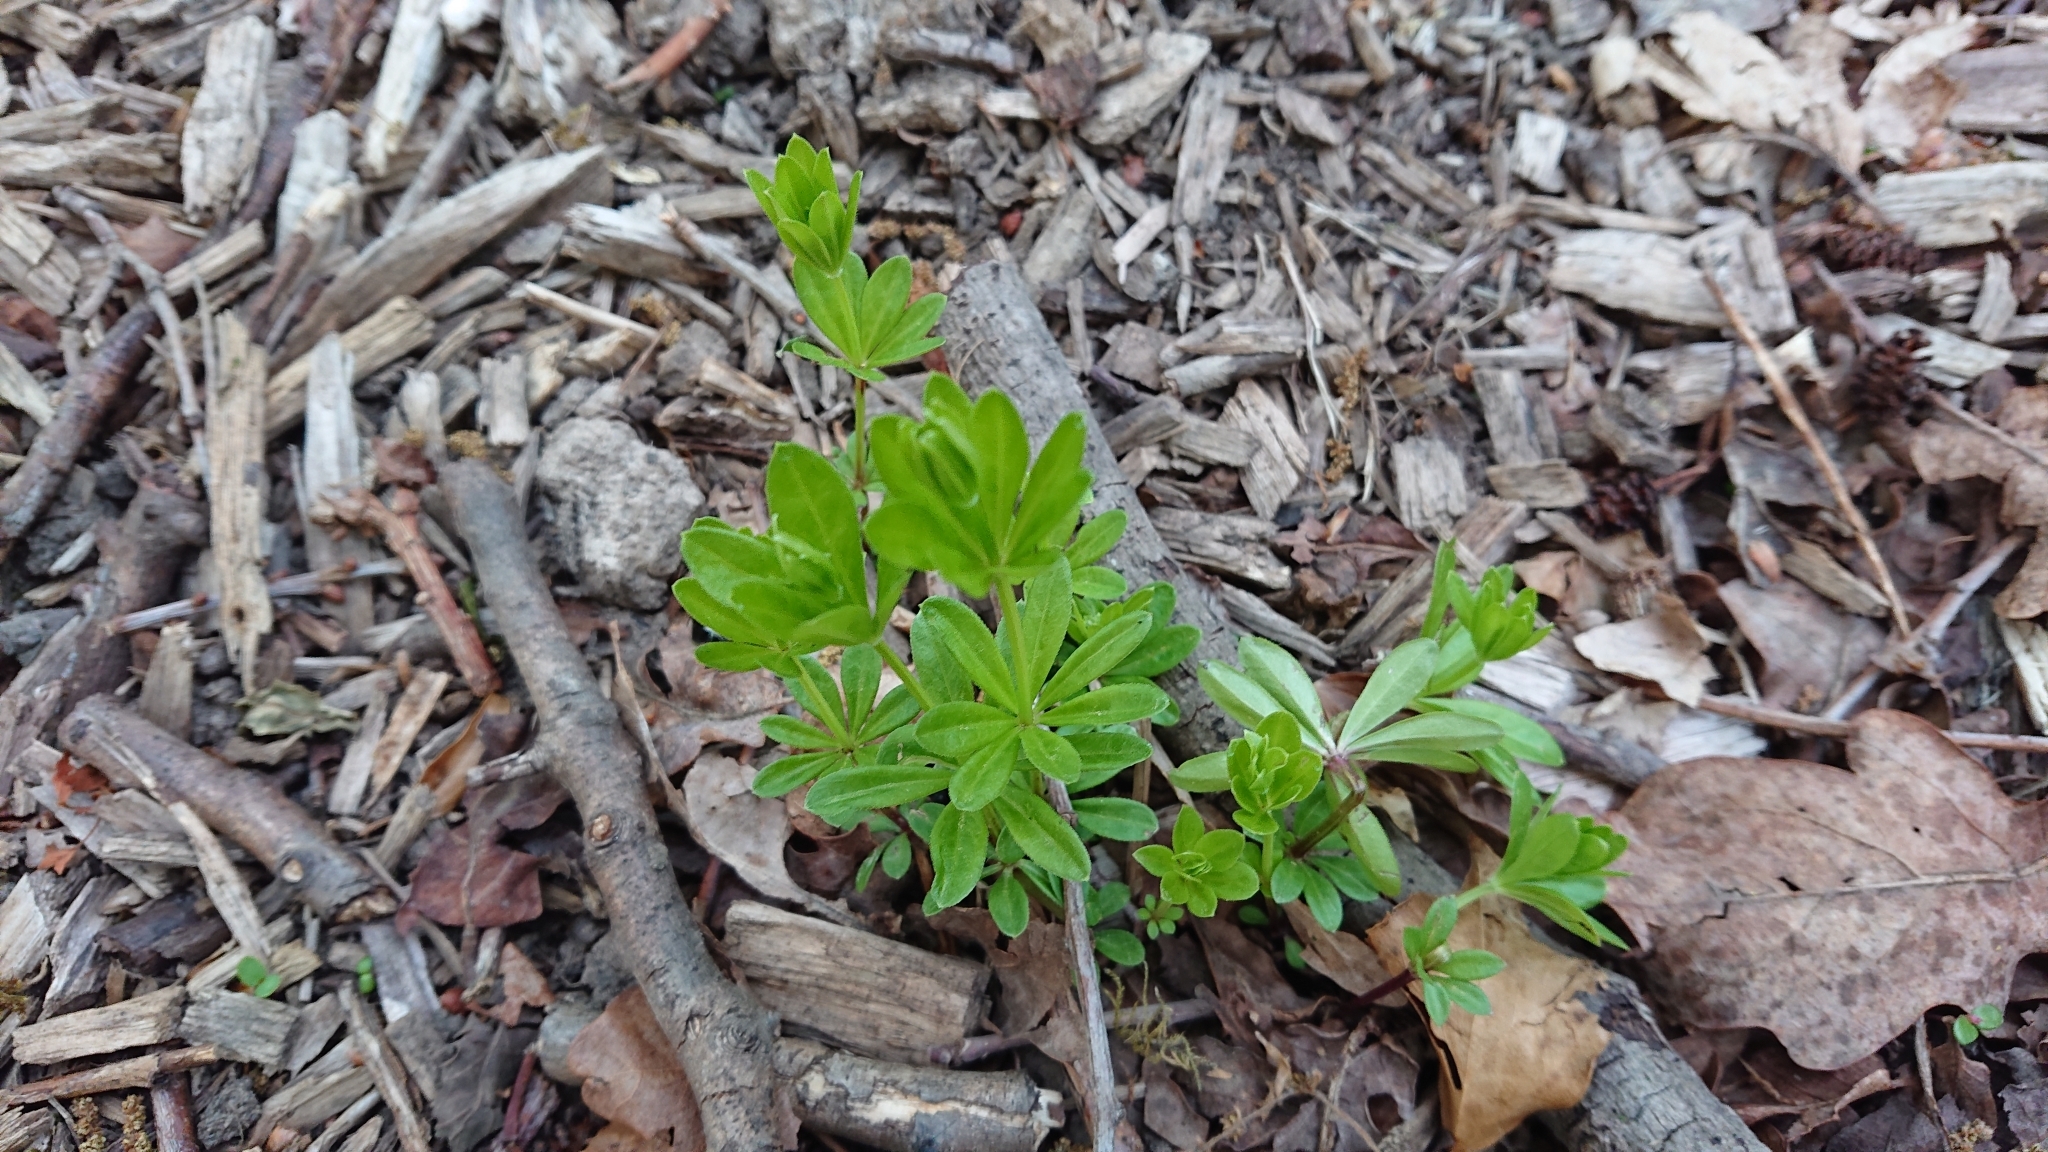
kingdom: Plantae
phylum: Tracheophyta
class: Magnoliopsida
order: Gentianales
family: Rubiaceae
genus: Galium
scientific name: Galium odoratum
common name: Sweet woodruff
